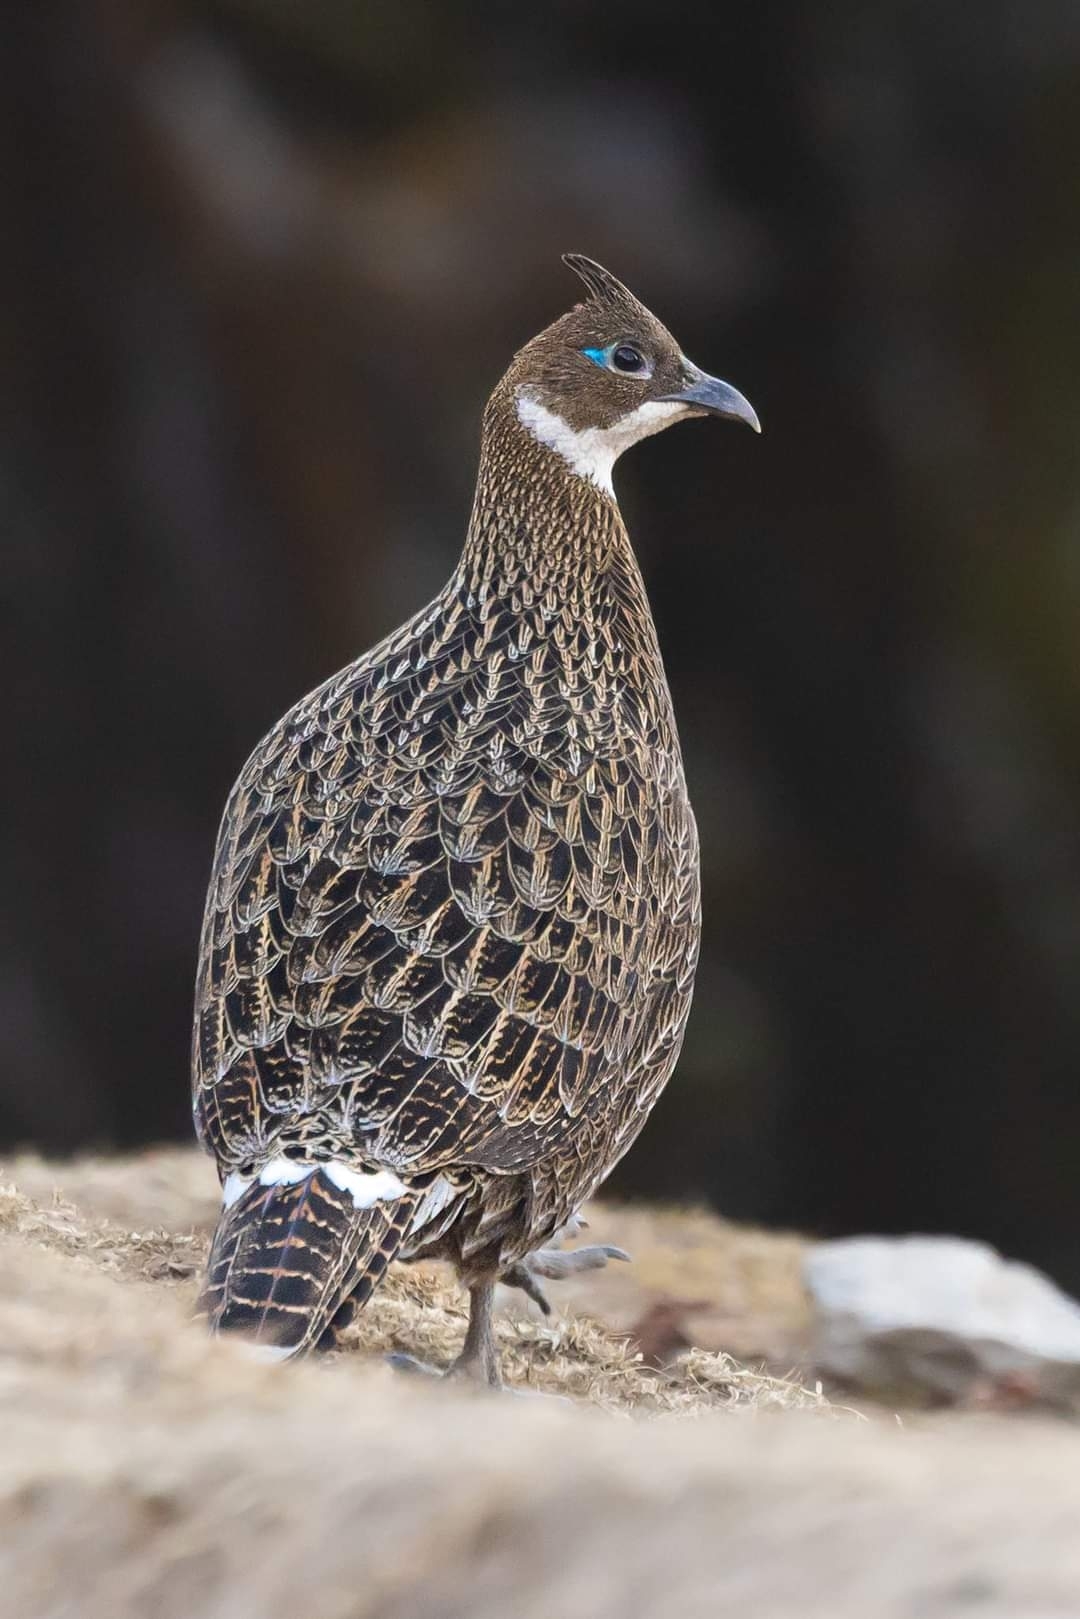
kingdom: Animalia
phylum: Chordata
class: Aves
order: Galliformes
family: Phasianidae
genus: Lophophorus
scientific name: Lophophorus impejanus
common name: Himalayan monal
